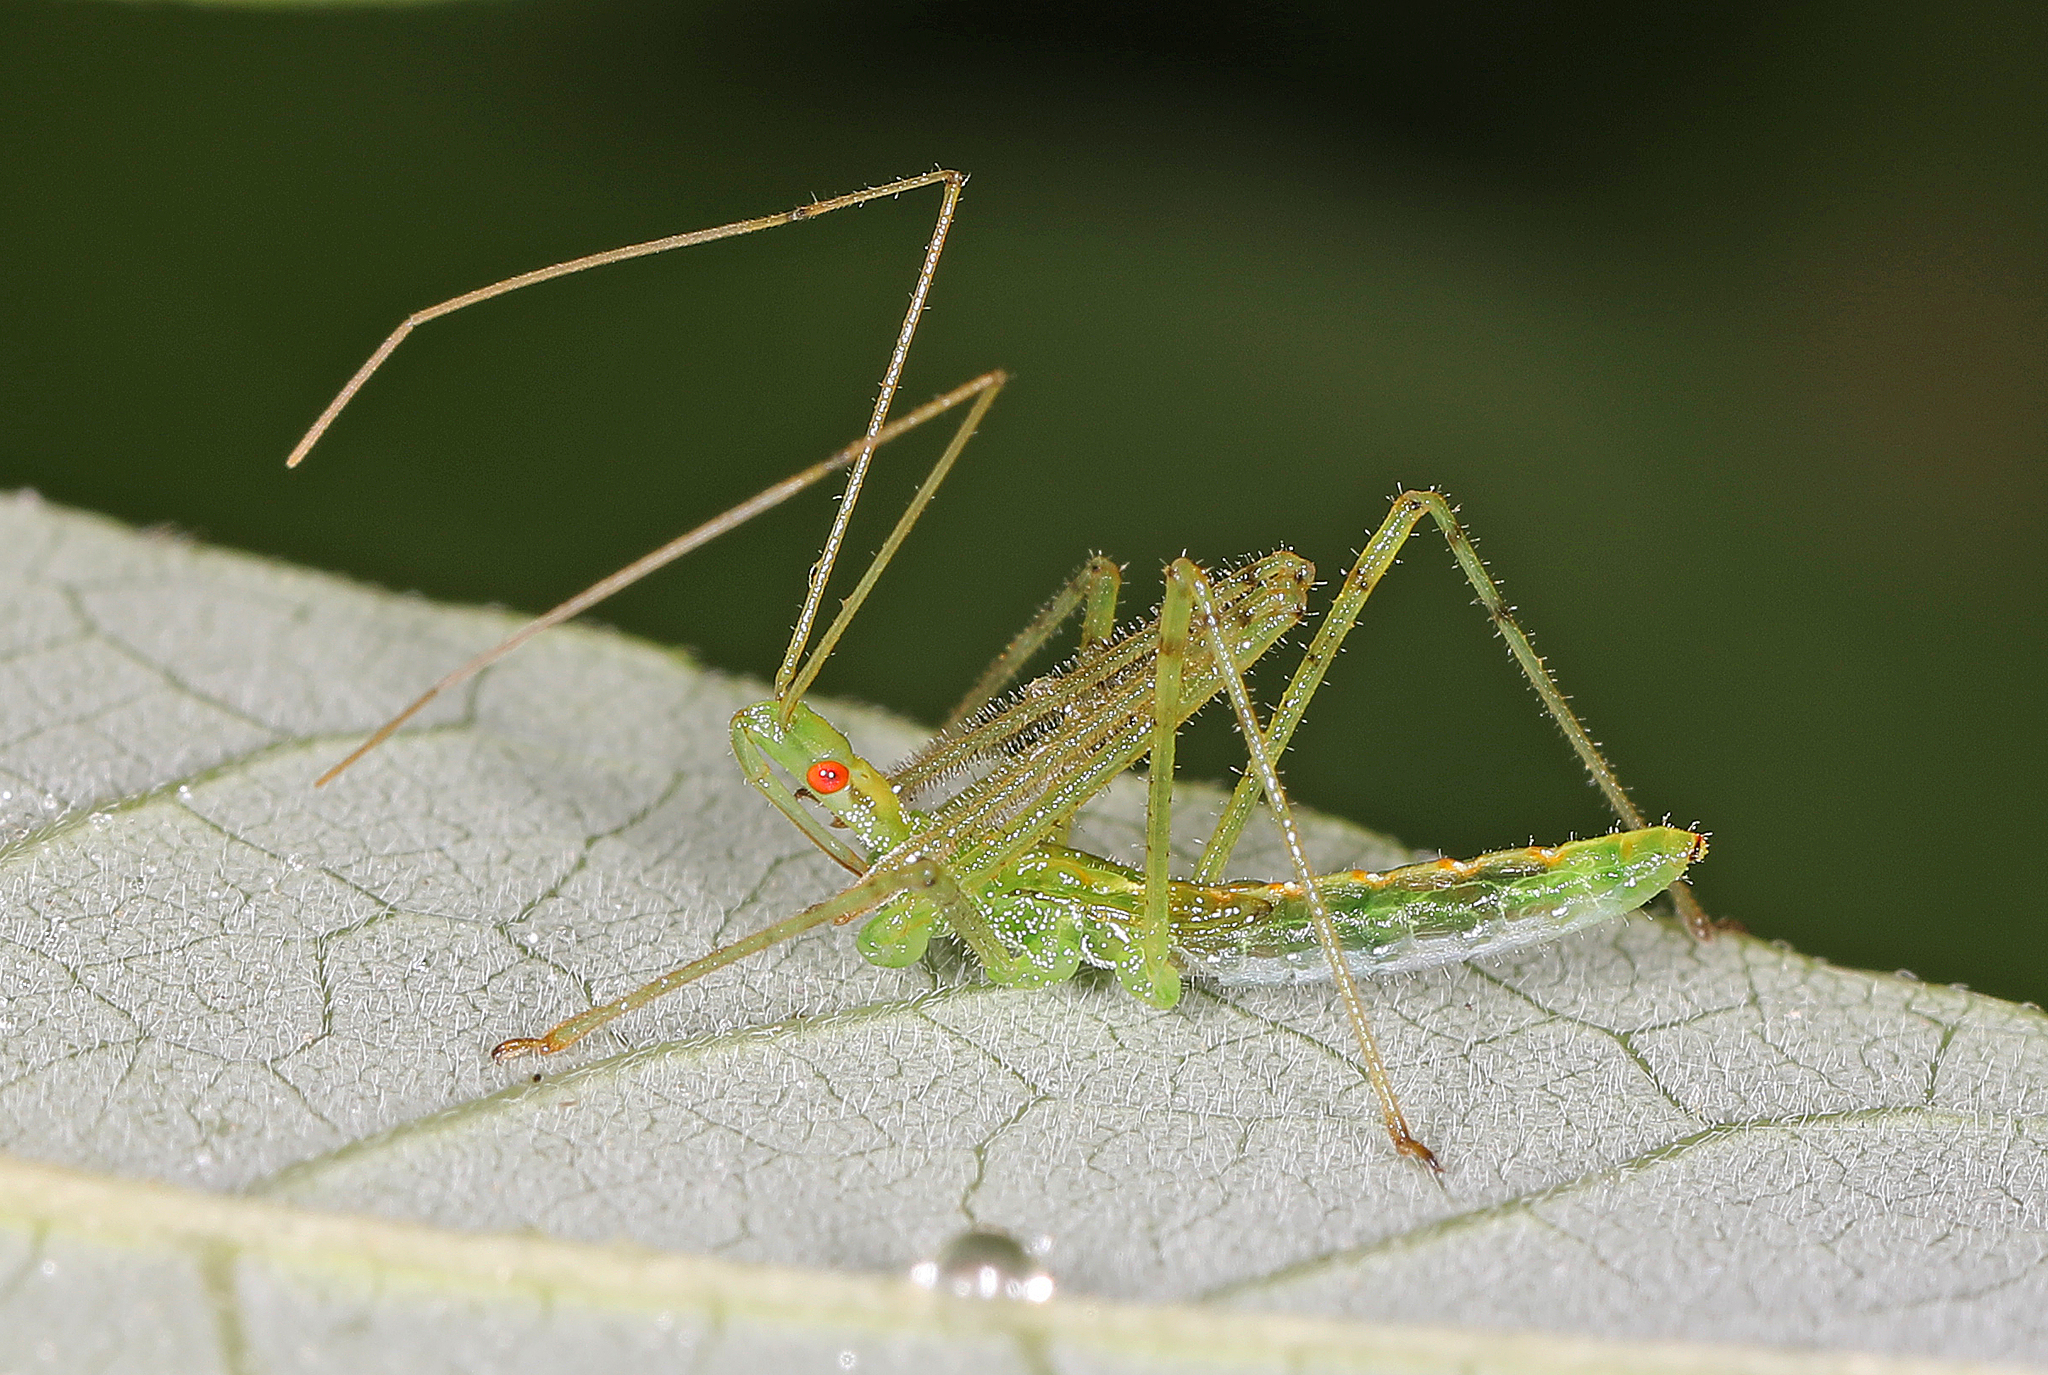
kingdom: Animalia
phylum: Arthropoda
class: Insecta
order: Hemiptera
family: Reduviidae
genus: Zelus
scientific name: Zelus luridus
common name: Pale green assassin bug
